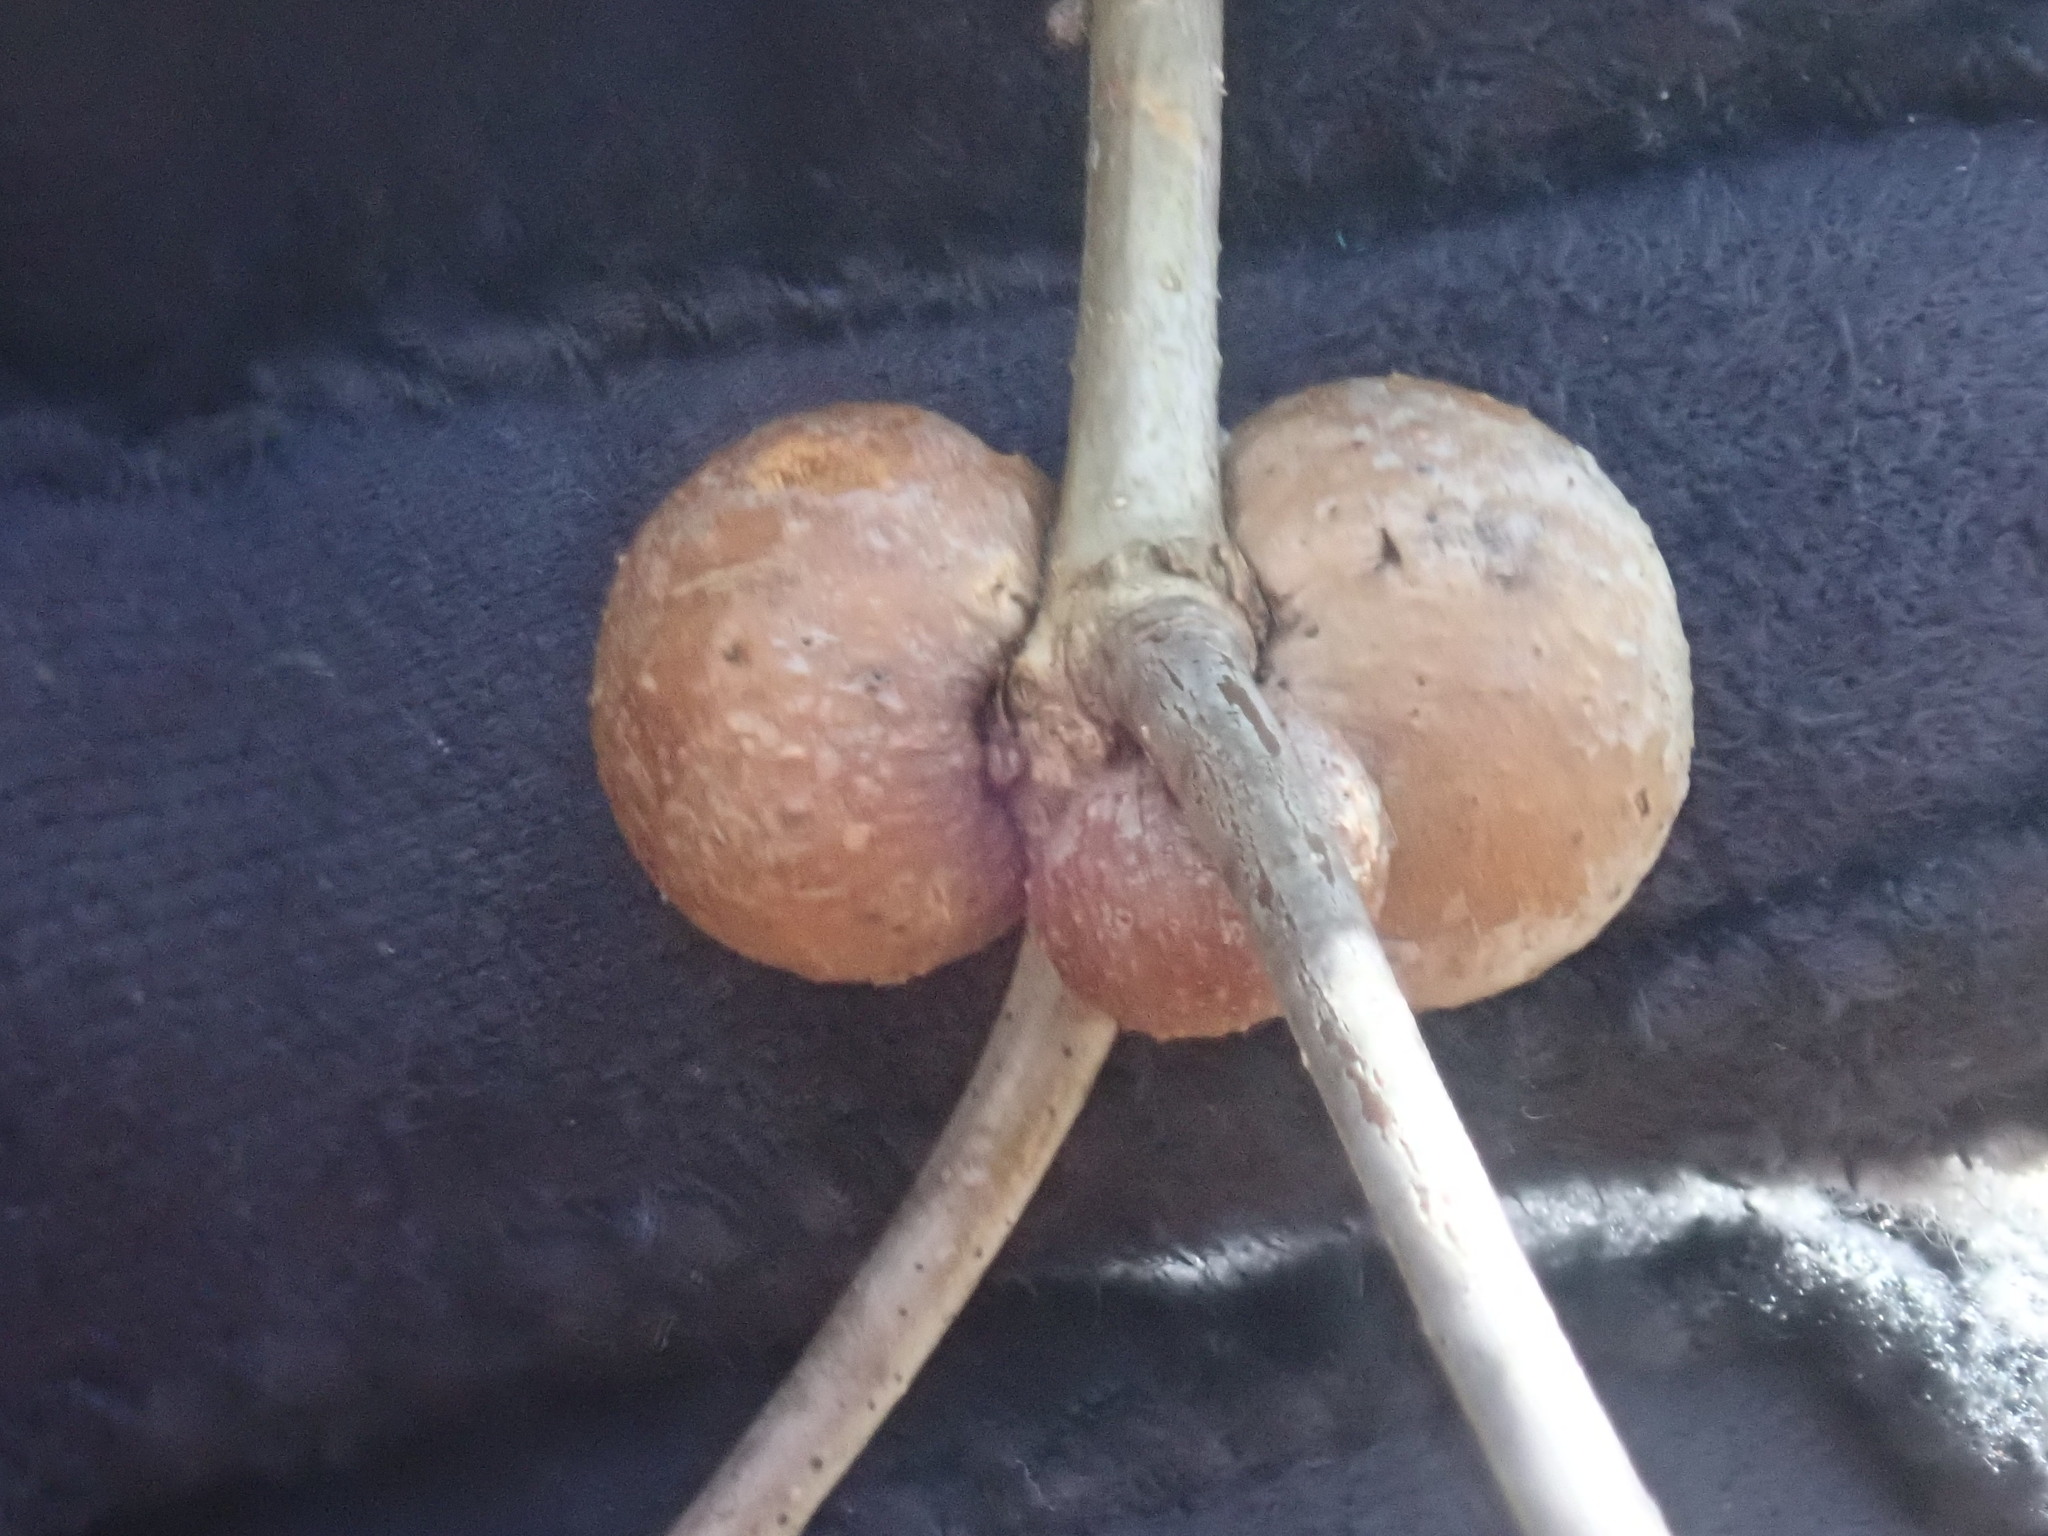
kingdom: Animalia
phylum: Arthropoda
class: Insecta
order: Hymenoptera
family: Cynipidae
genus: Disholcaspis
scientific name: Disholcaspis quercusglobulus
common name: Round bullet gall wasp
